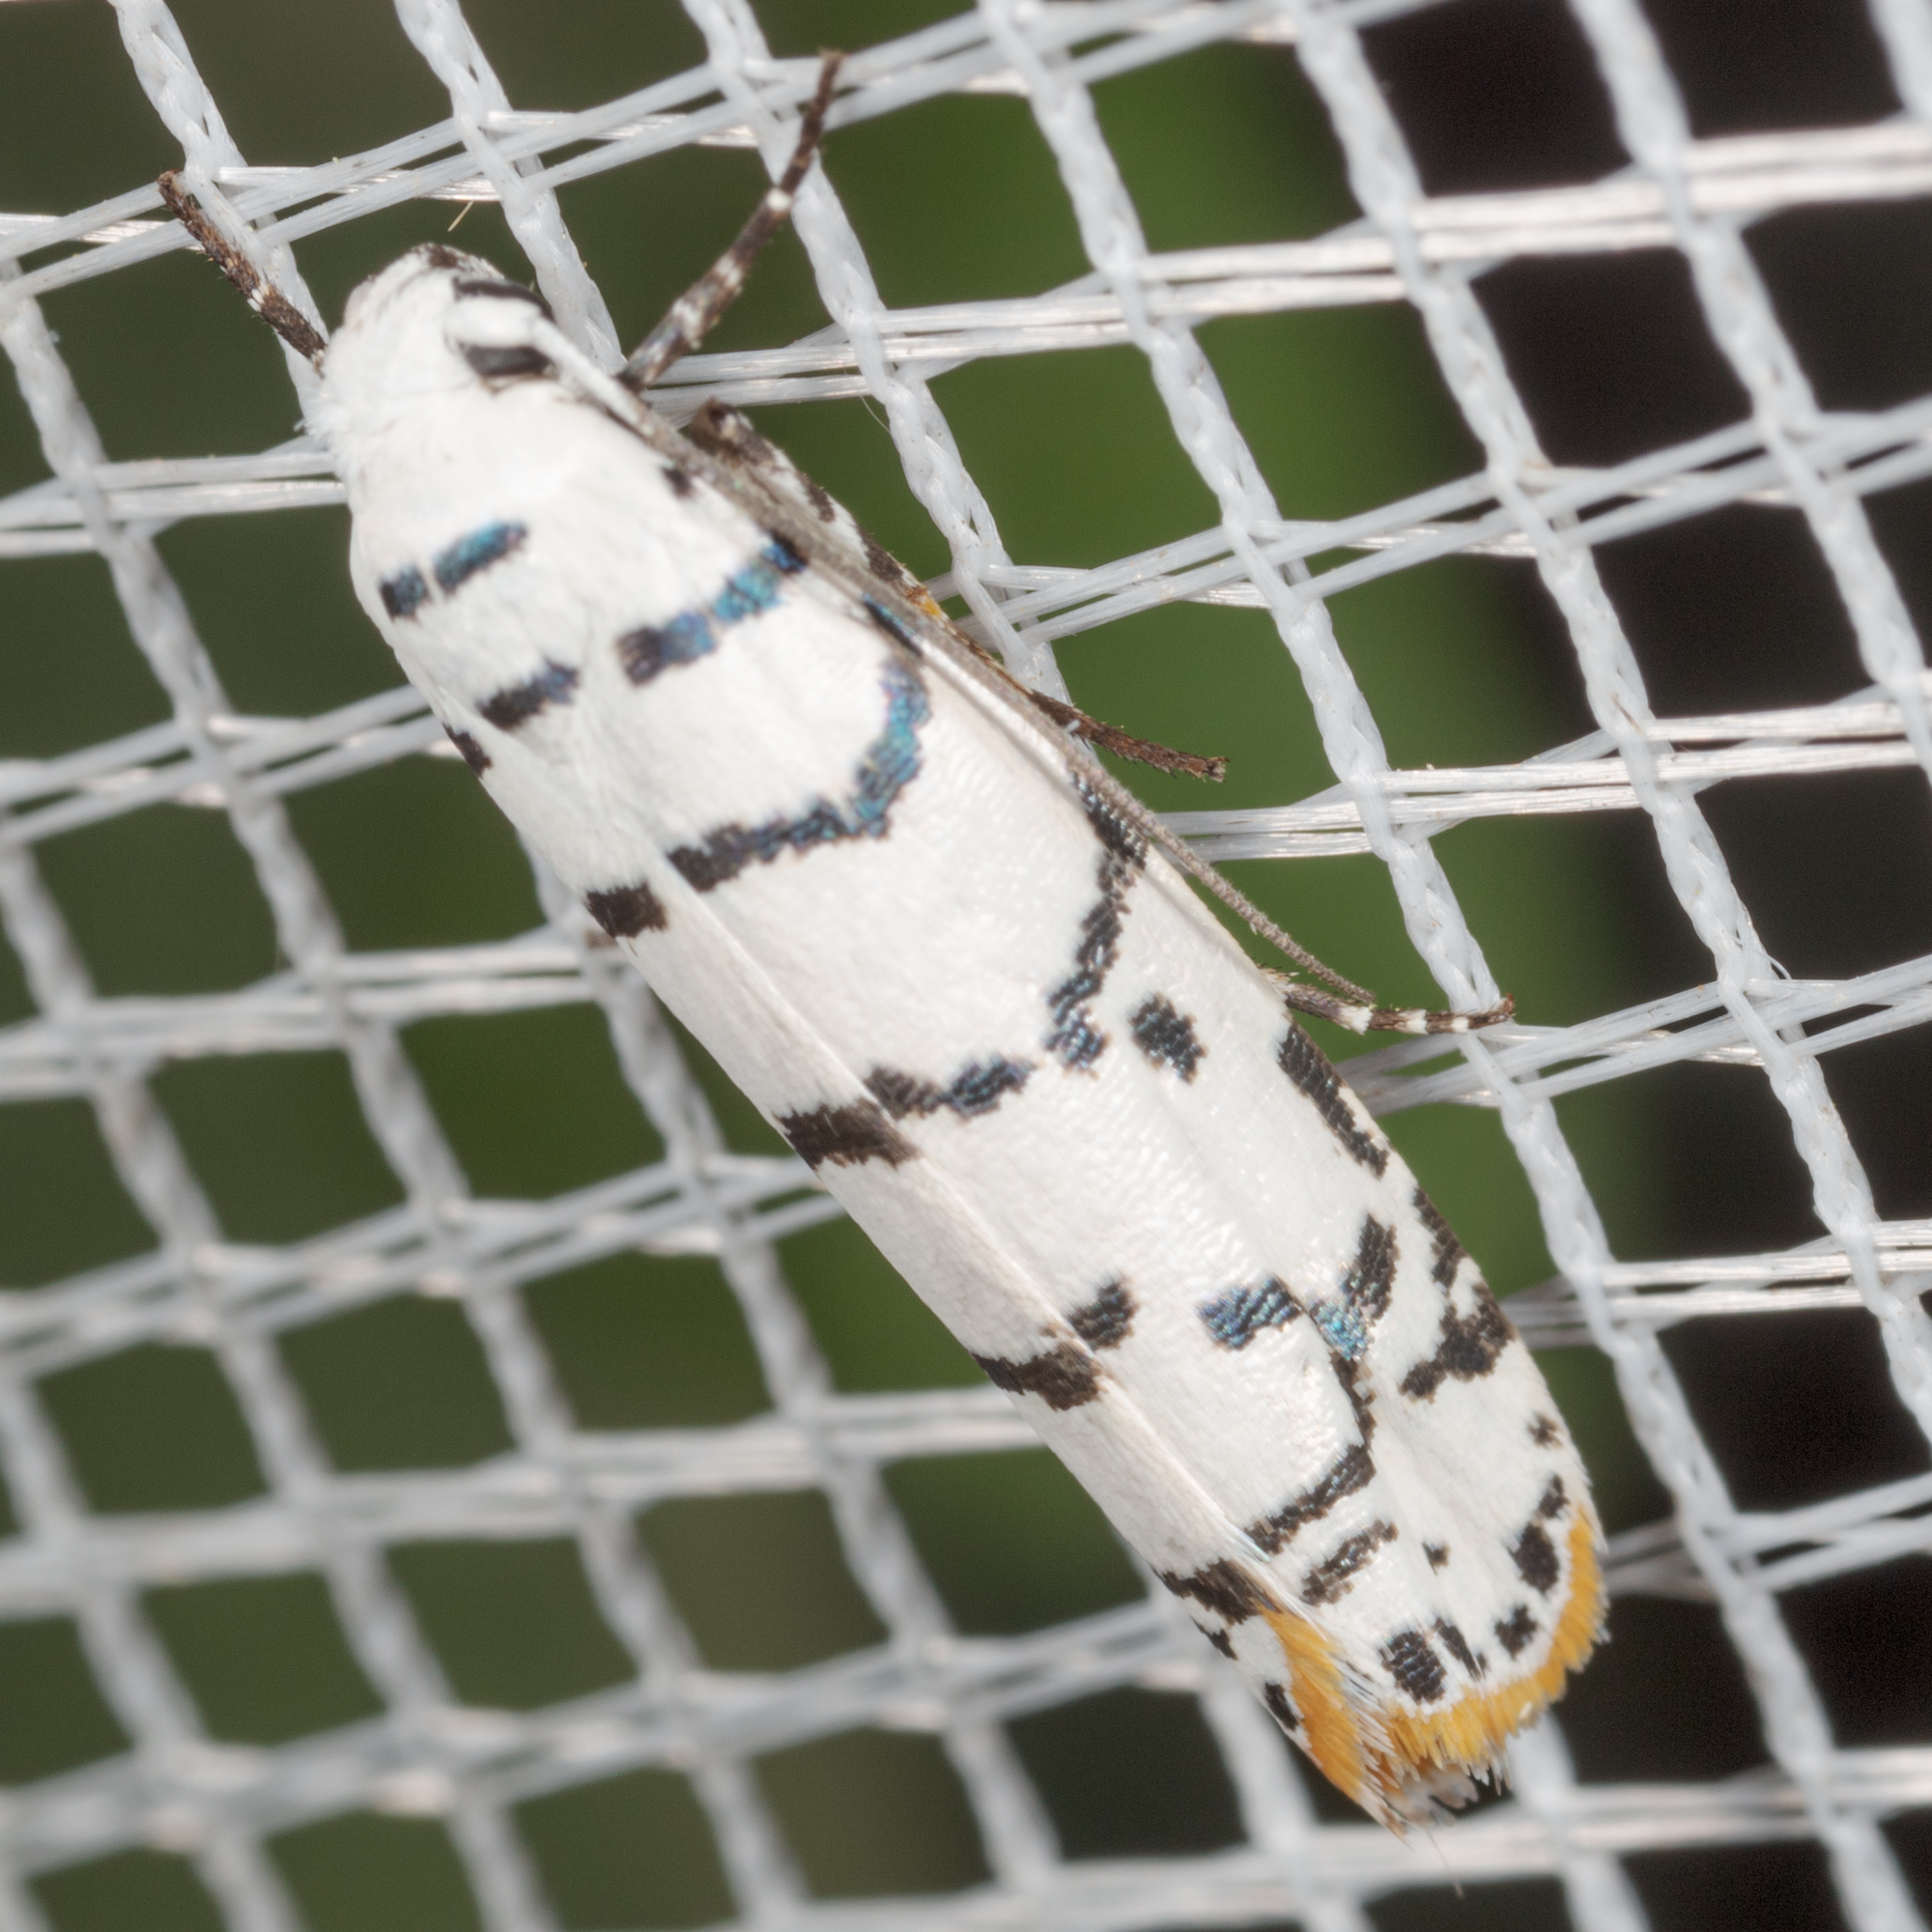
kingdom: Animalia
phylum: Arthropoda
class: Insecta
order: Lepidoptera
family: Ethmiidae
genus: Ethmia
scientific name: Ethmia delliella
